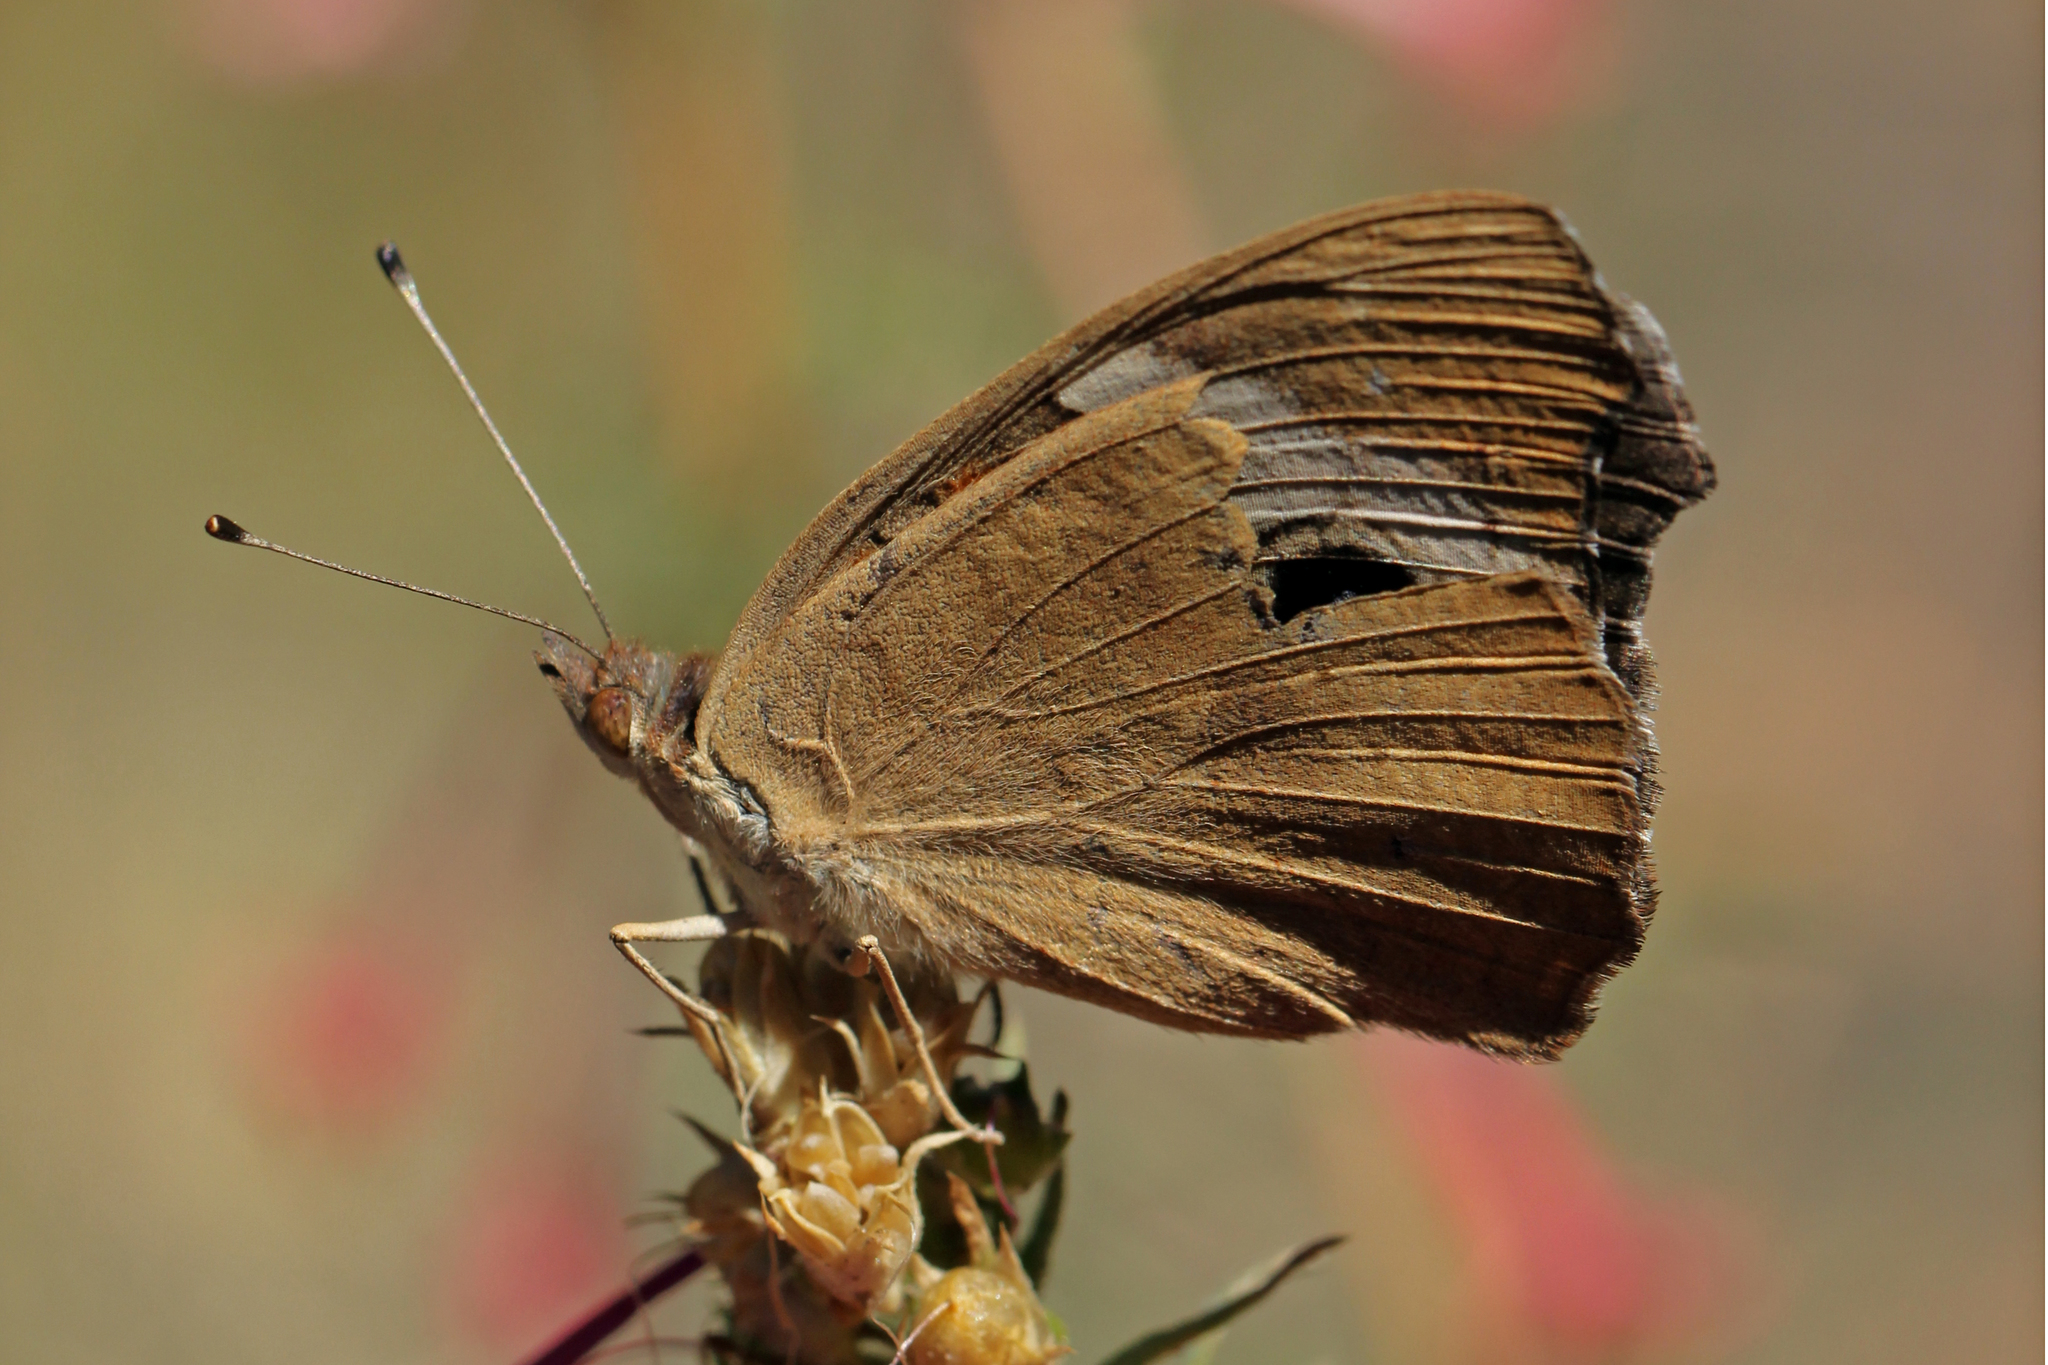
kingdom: Animalia
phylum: Arthropoda
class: Insecta
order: Lepidoptera
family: Nymphalidae
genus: Junonia
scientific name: Junonia grisea
